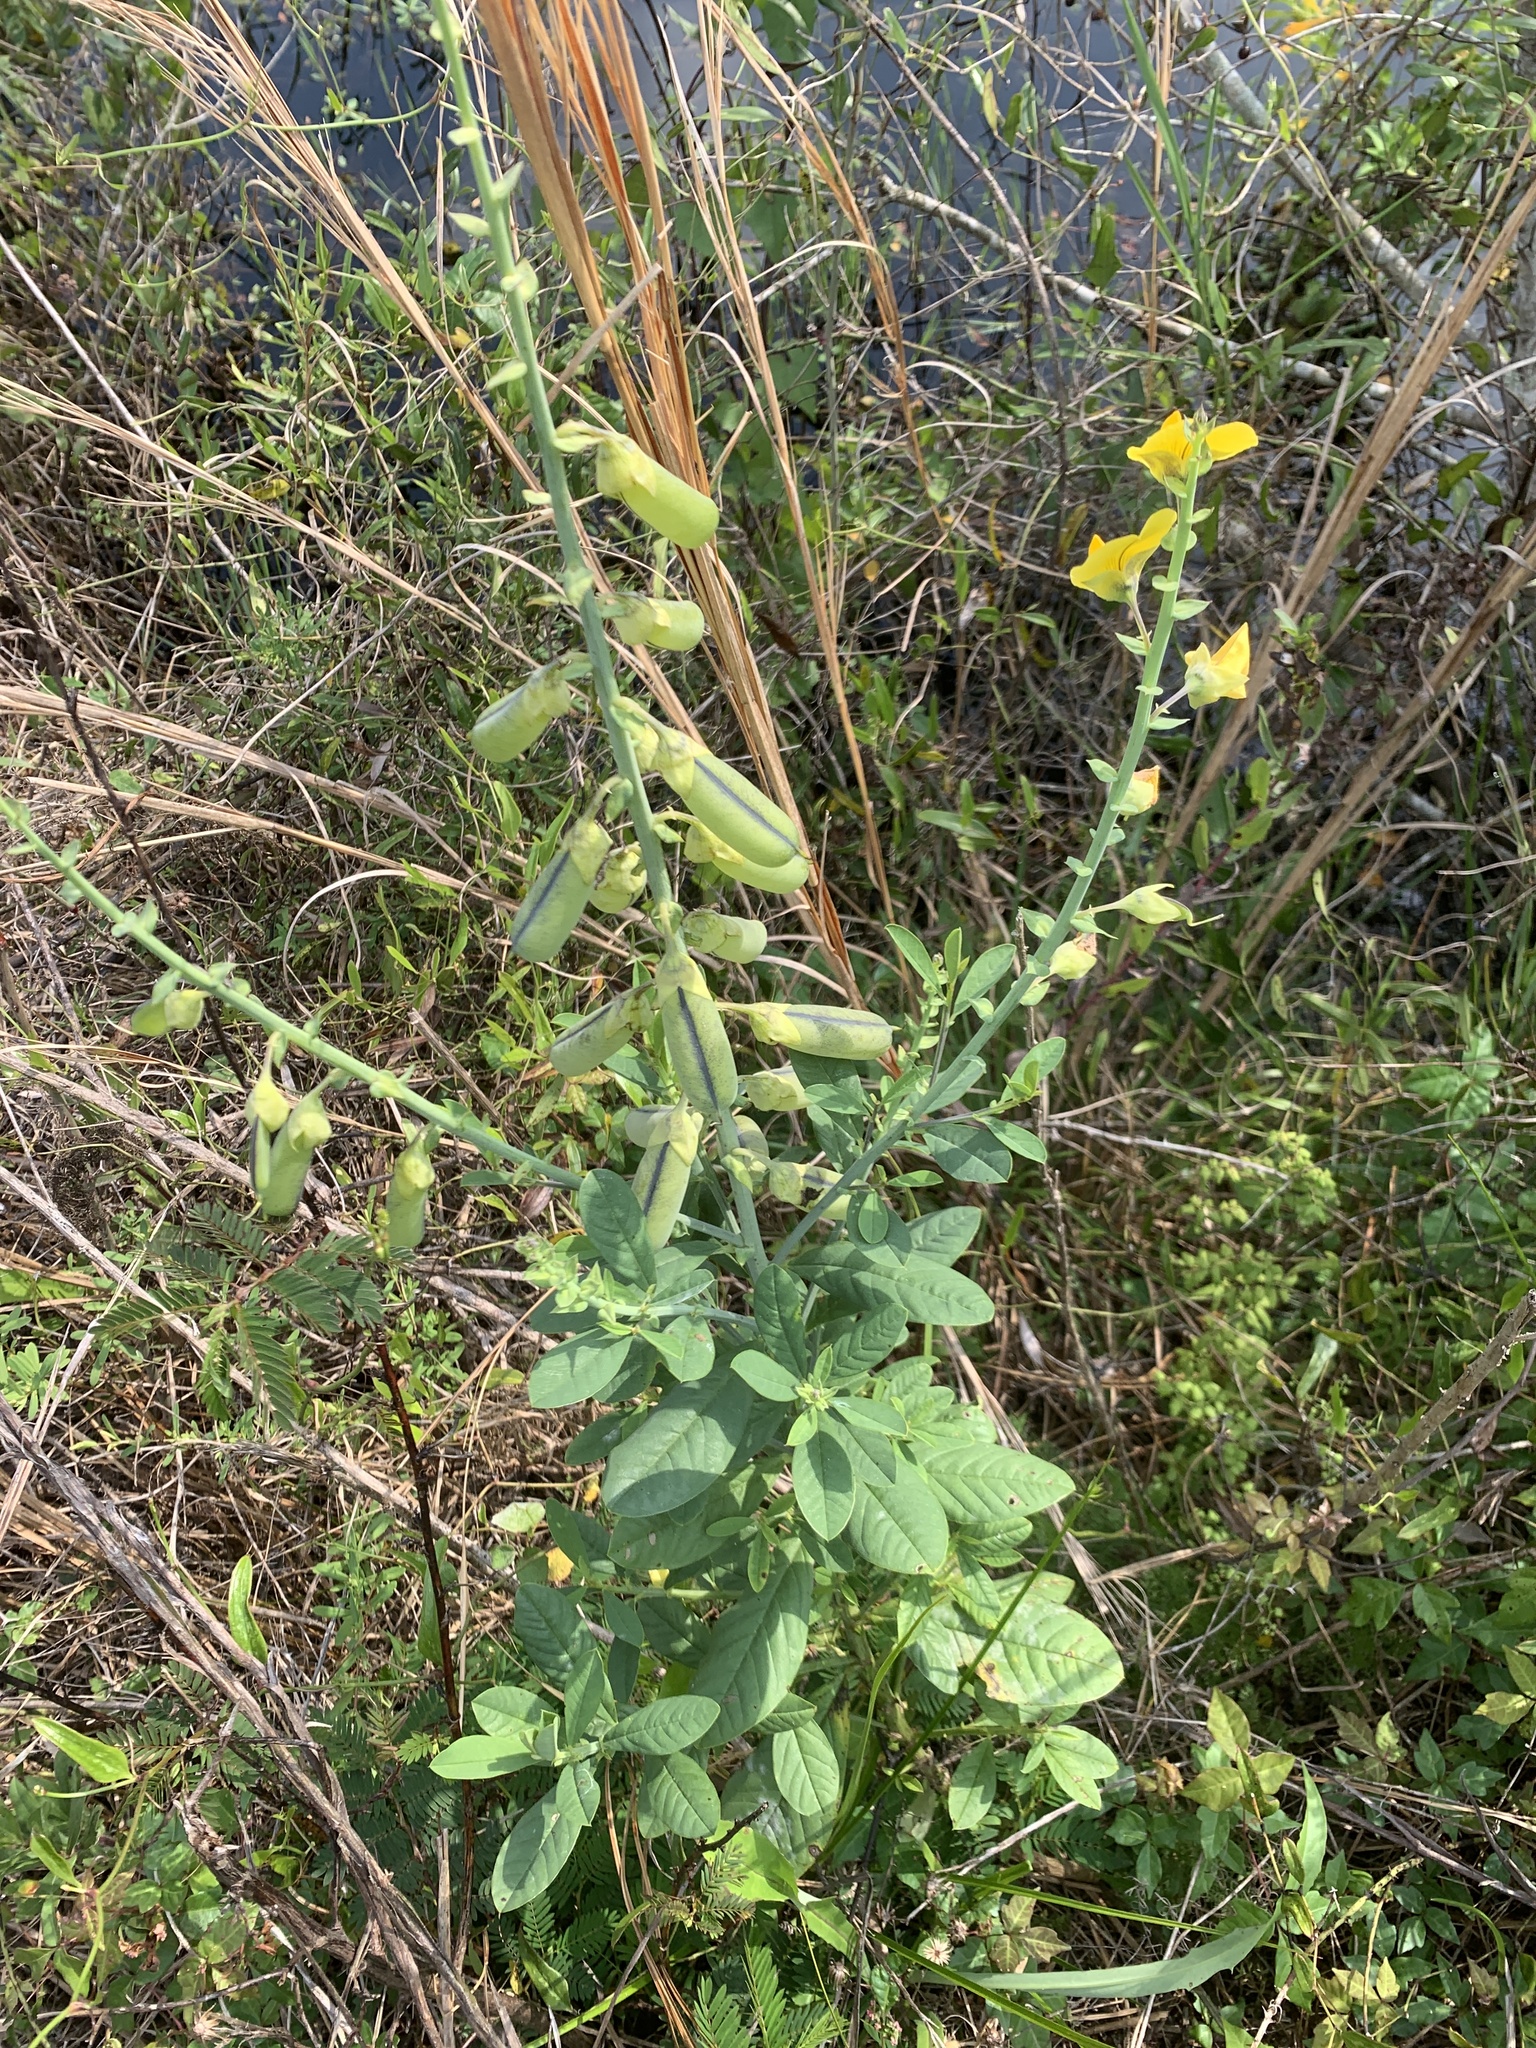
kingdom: Plantae
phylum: Tracheophyta
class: Magnoliopsida
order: Fabales
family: Fabaceae
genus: Crotalaria
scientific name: Crotalaria spectabilis
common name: Showy rattlebox
